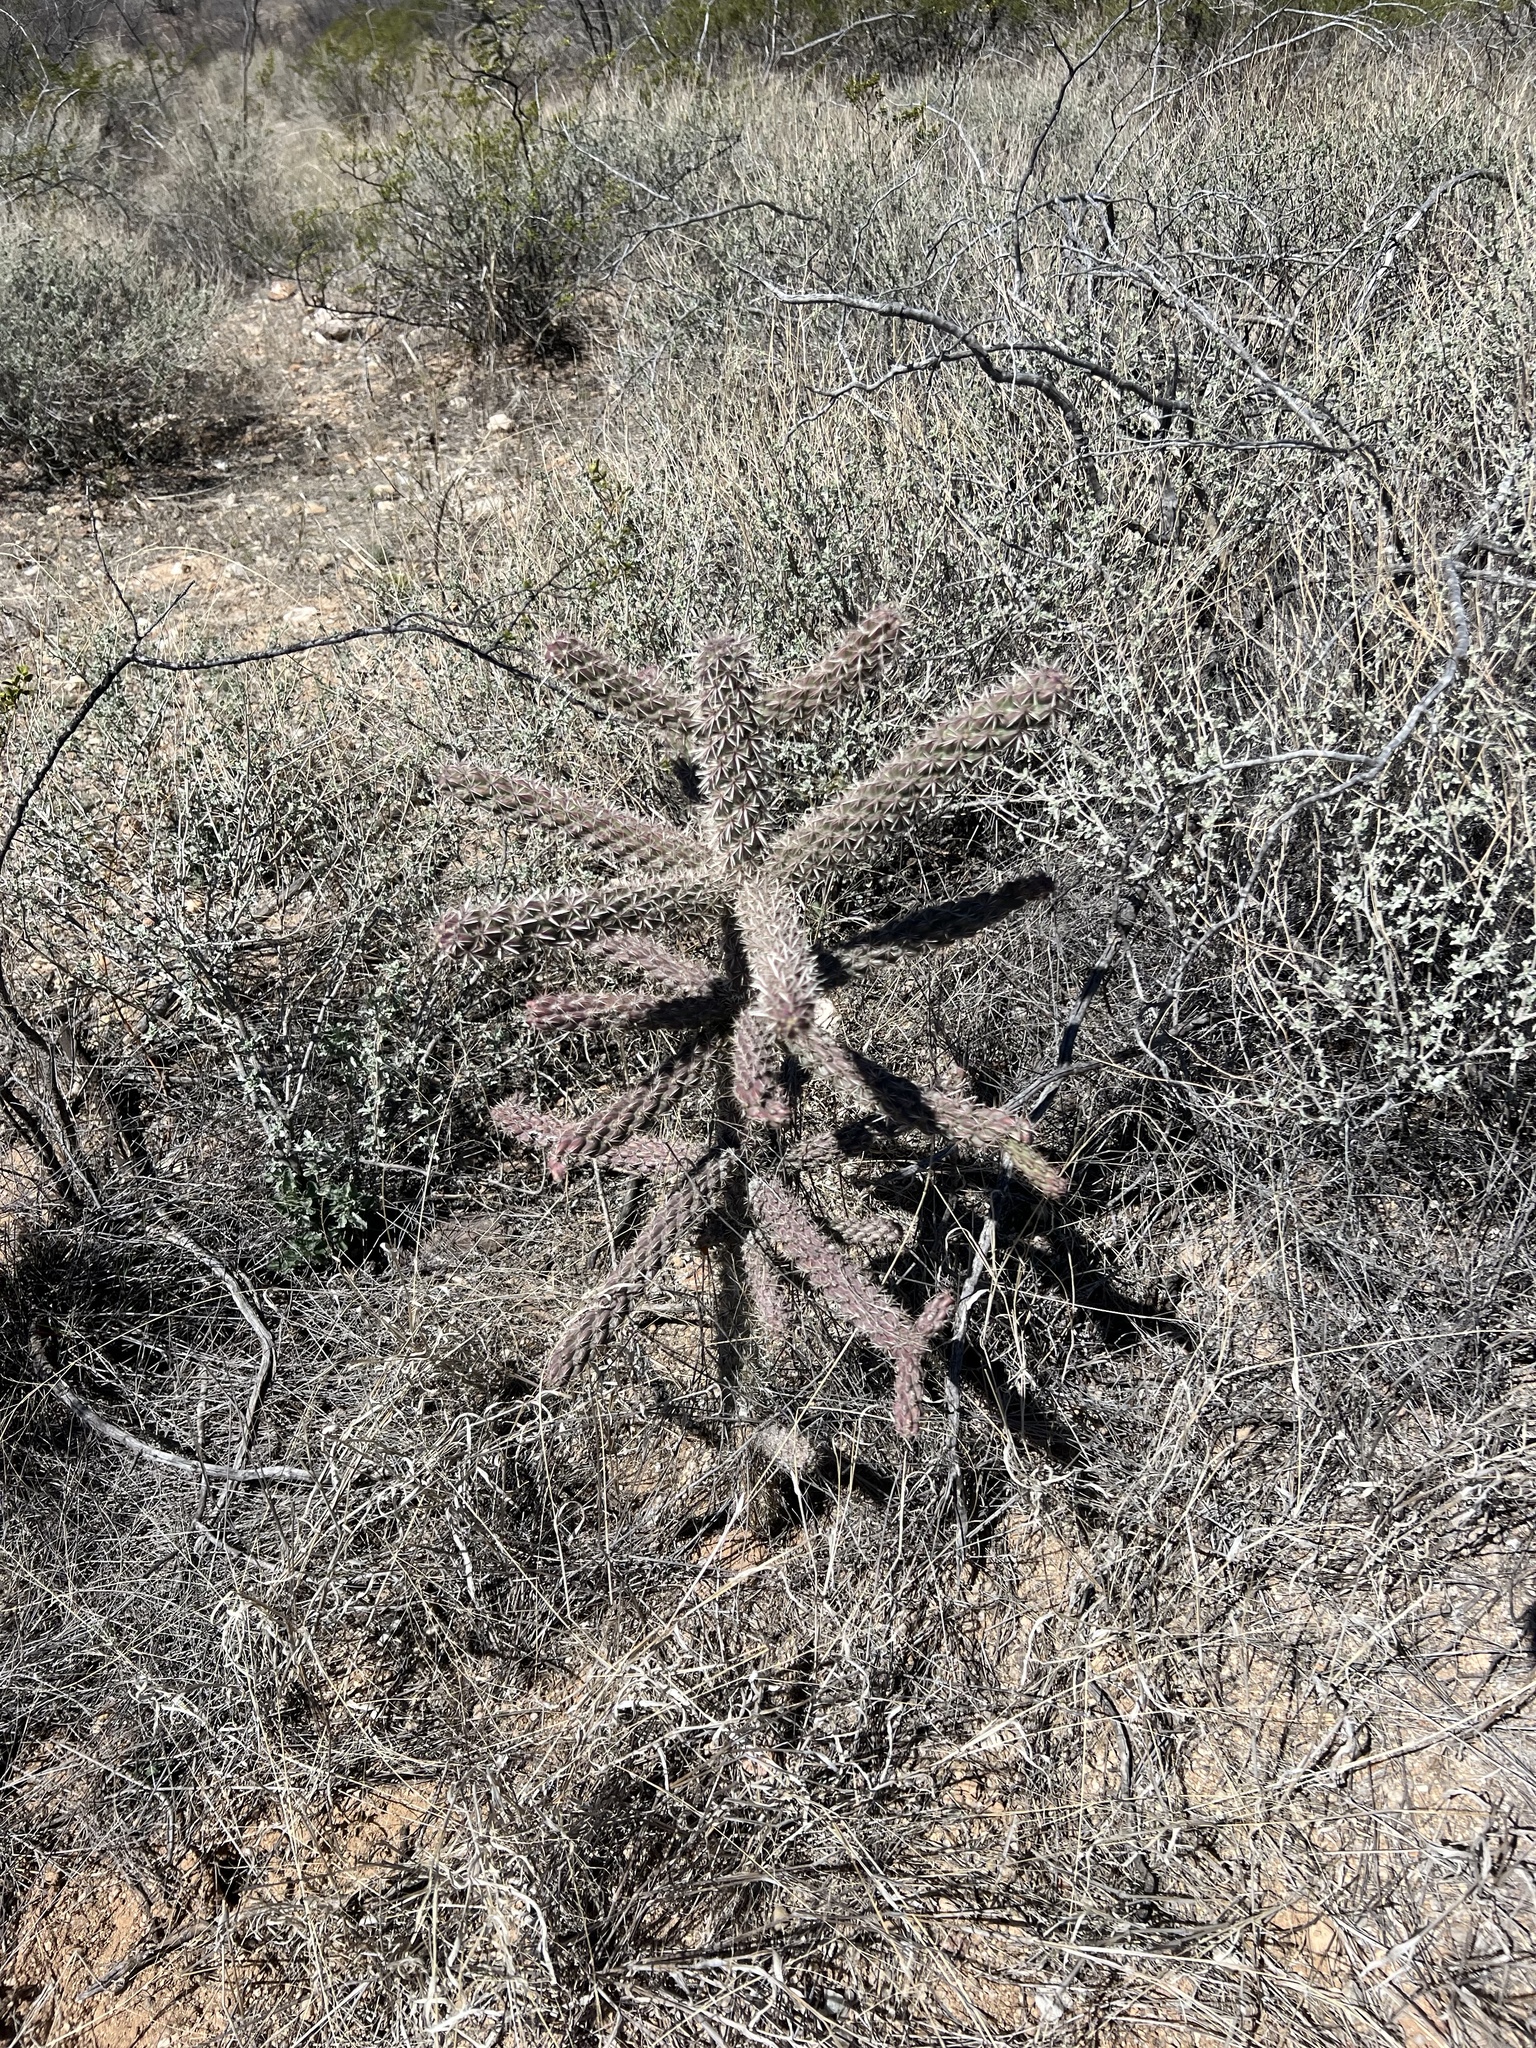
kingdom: Plantae
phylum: Tracheophyta
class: Magnoliopsida
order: Caryophyllales
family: Cactaceae
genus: Cylindropuntia
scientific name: Cylindropuntia imbricata
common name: Candelabrum cactus
